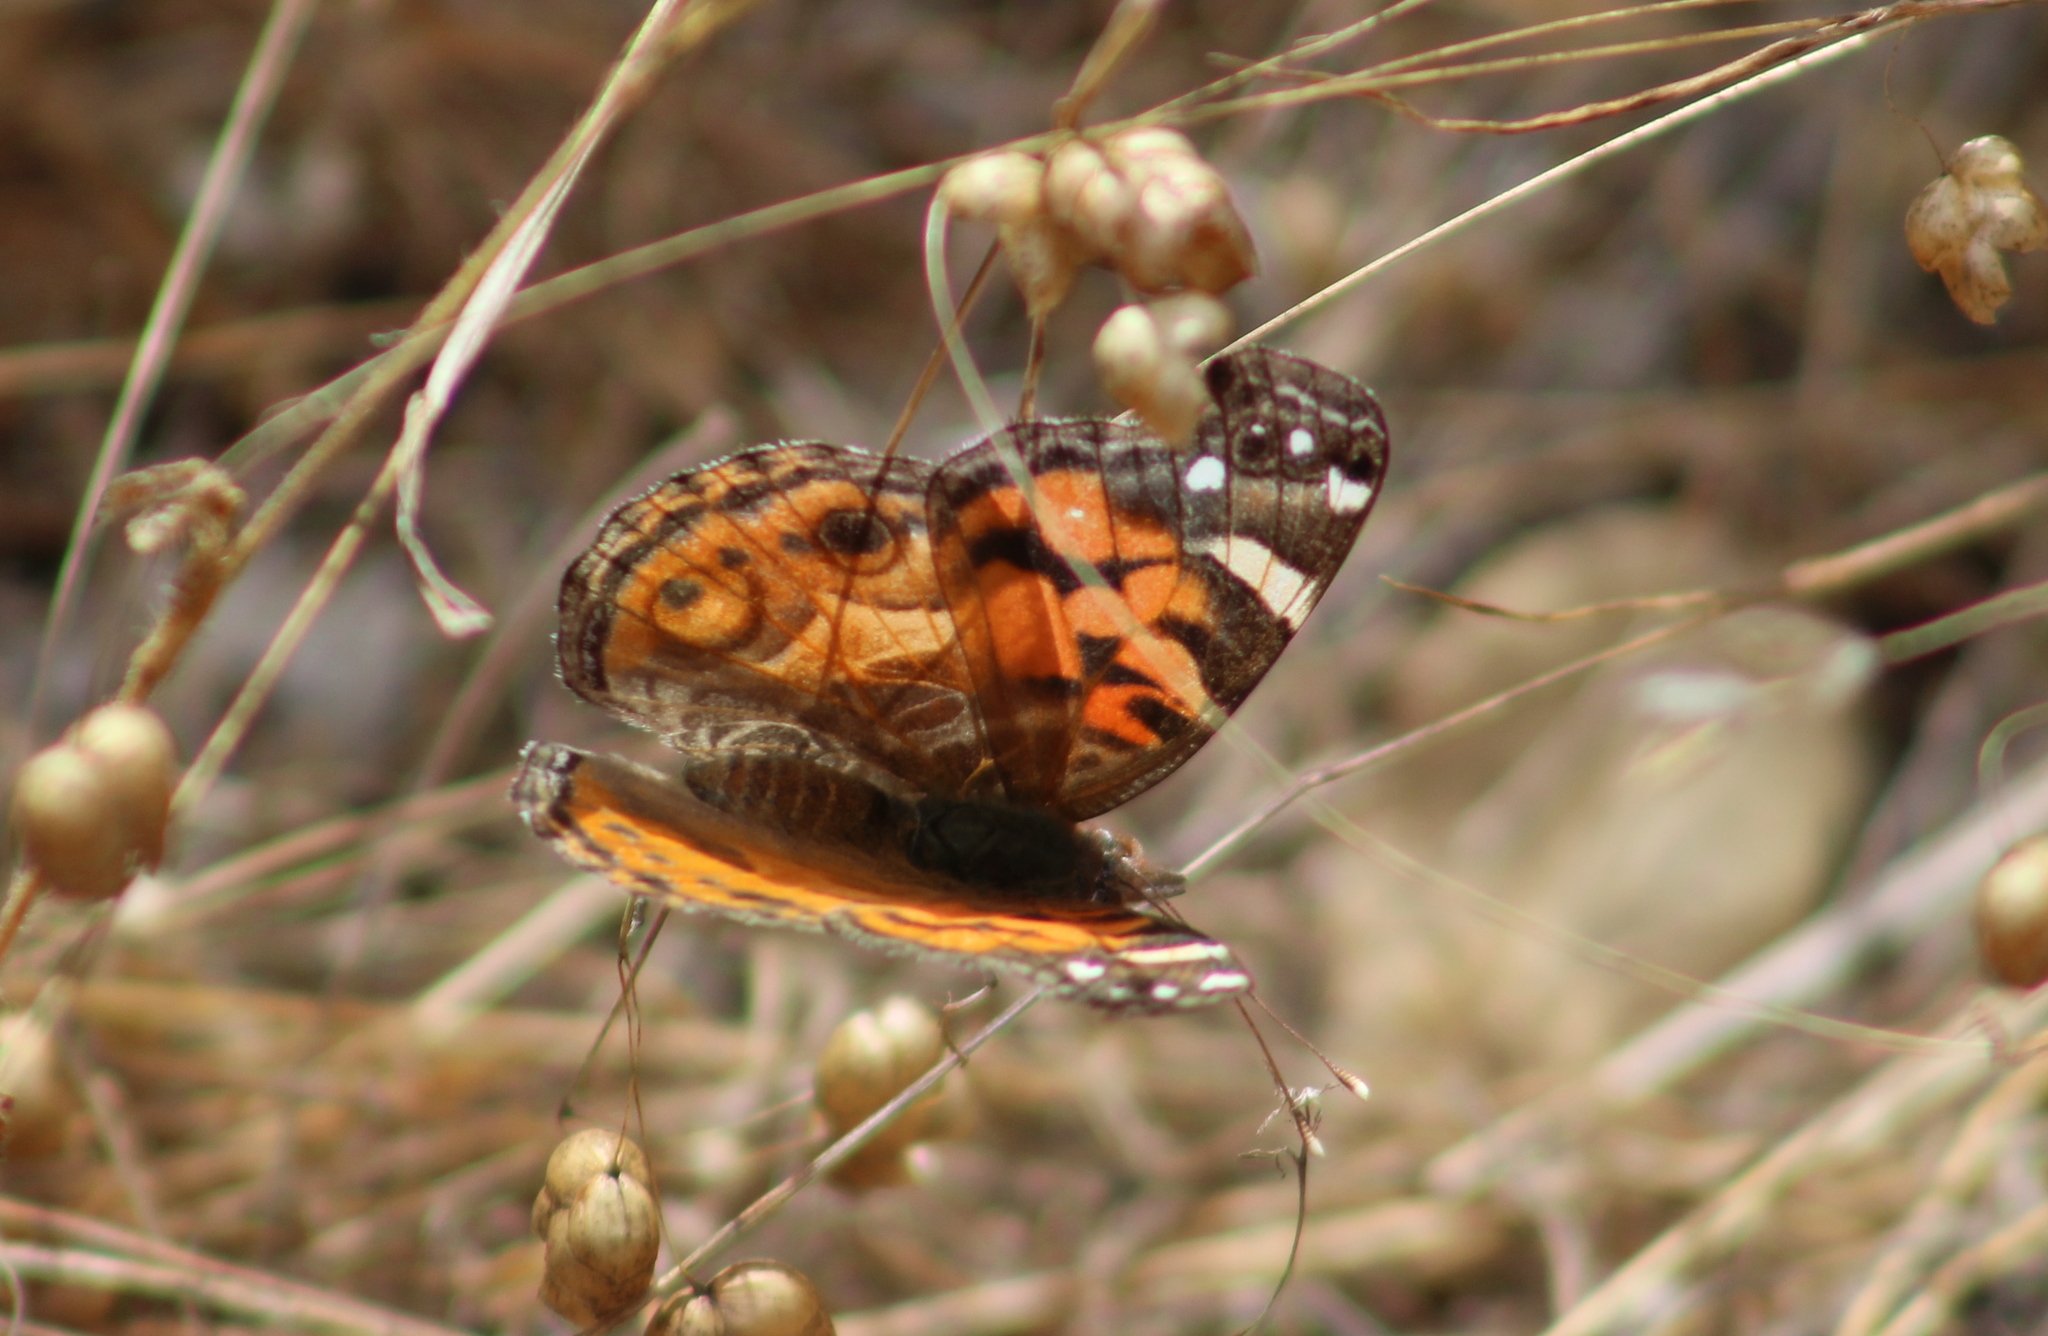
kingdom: Animalia
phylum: Arthropoda
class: Insecta
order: Lepidoptera
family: Nymphalidae
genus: Vanessa
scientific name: Vanessa virginiensis
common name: American lady
